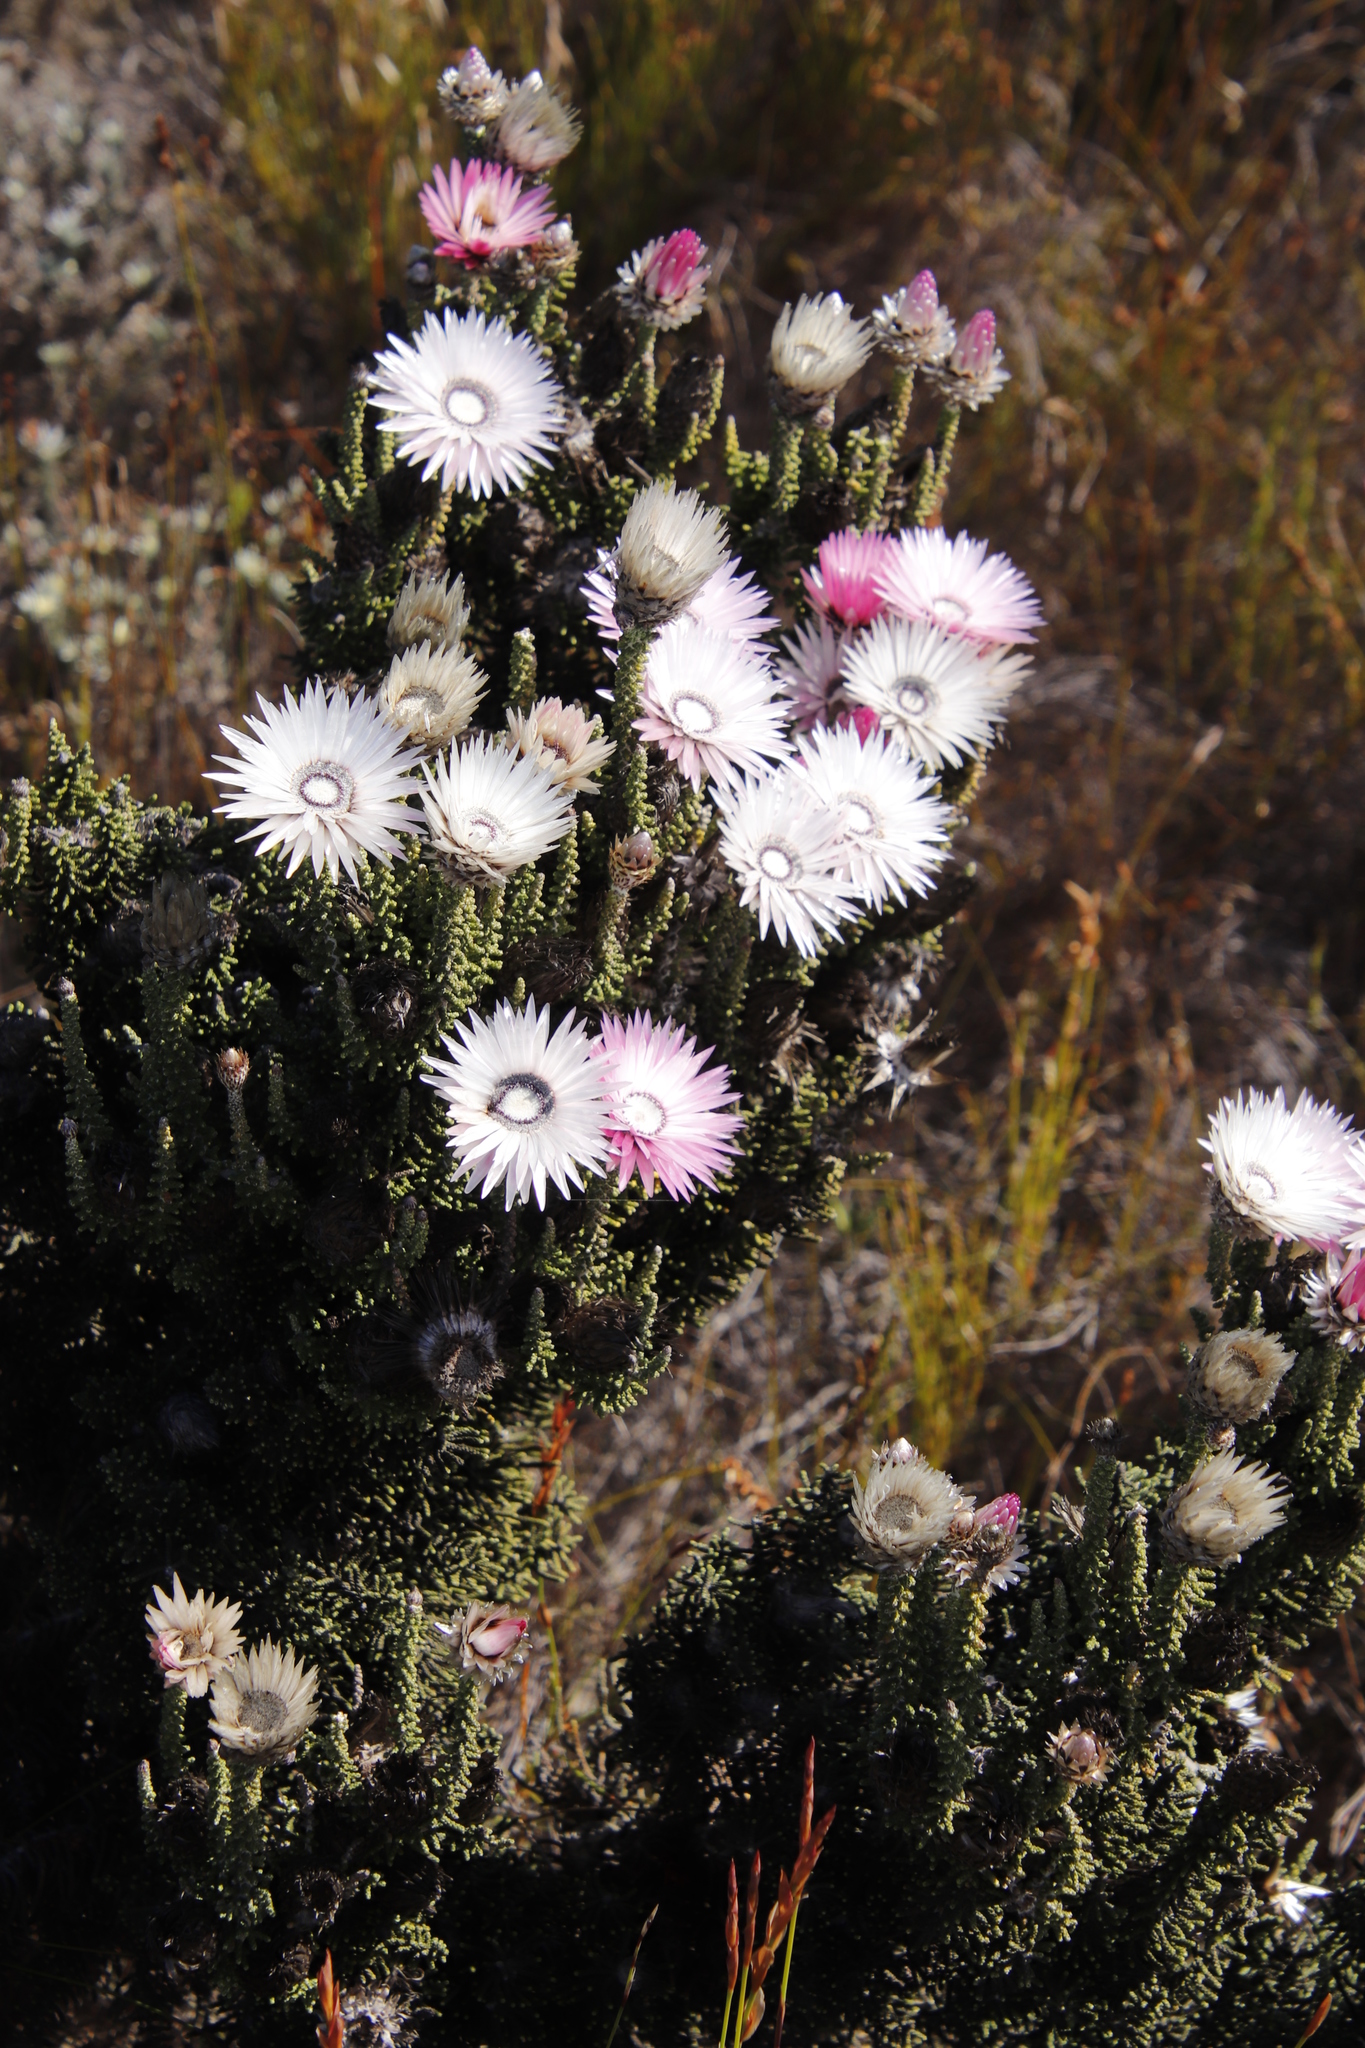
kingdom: Plantae
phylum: Tracheophyta
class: Magnoliopsida
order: Asterales
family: Asteraceae
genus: Phaenocoma
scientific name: Phaenocoma prolifera
